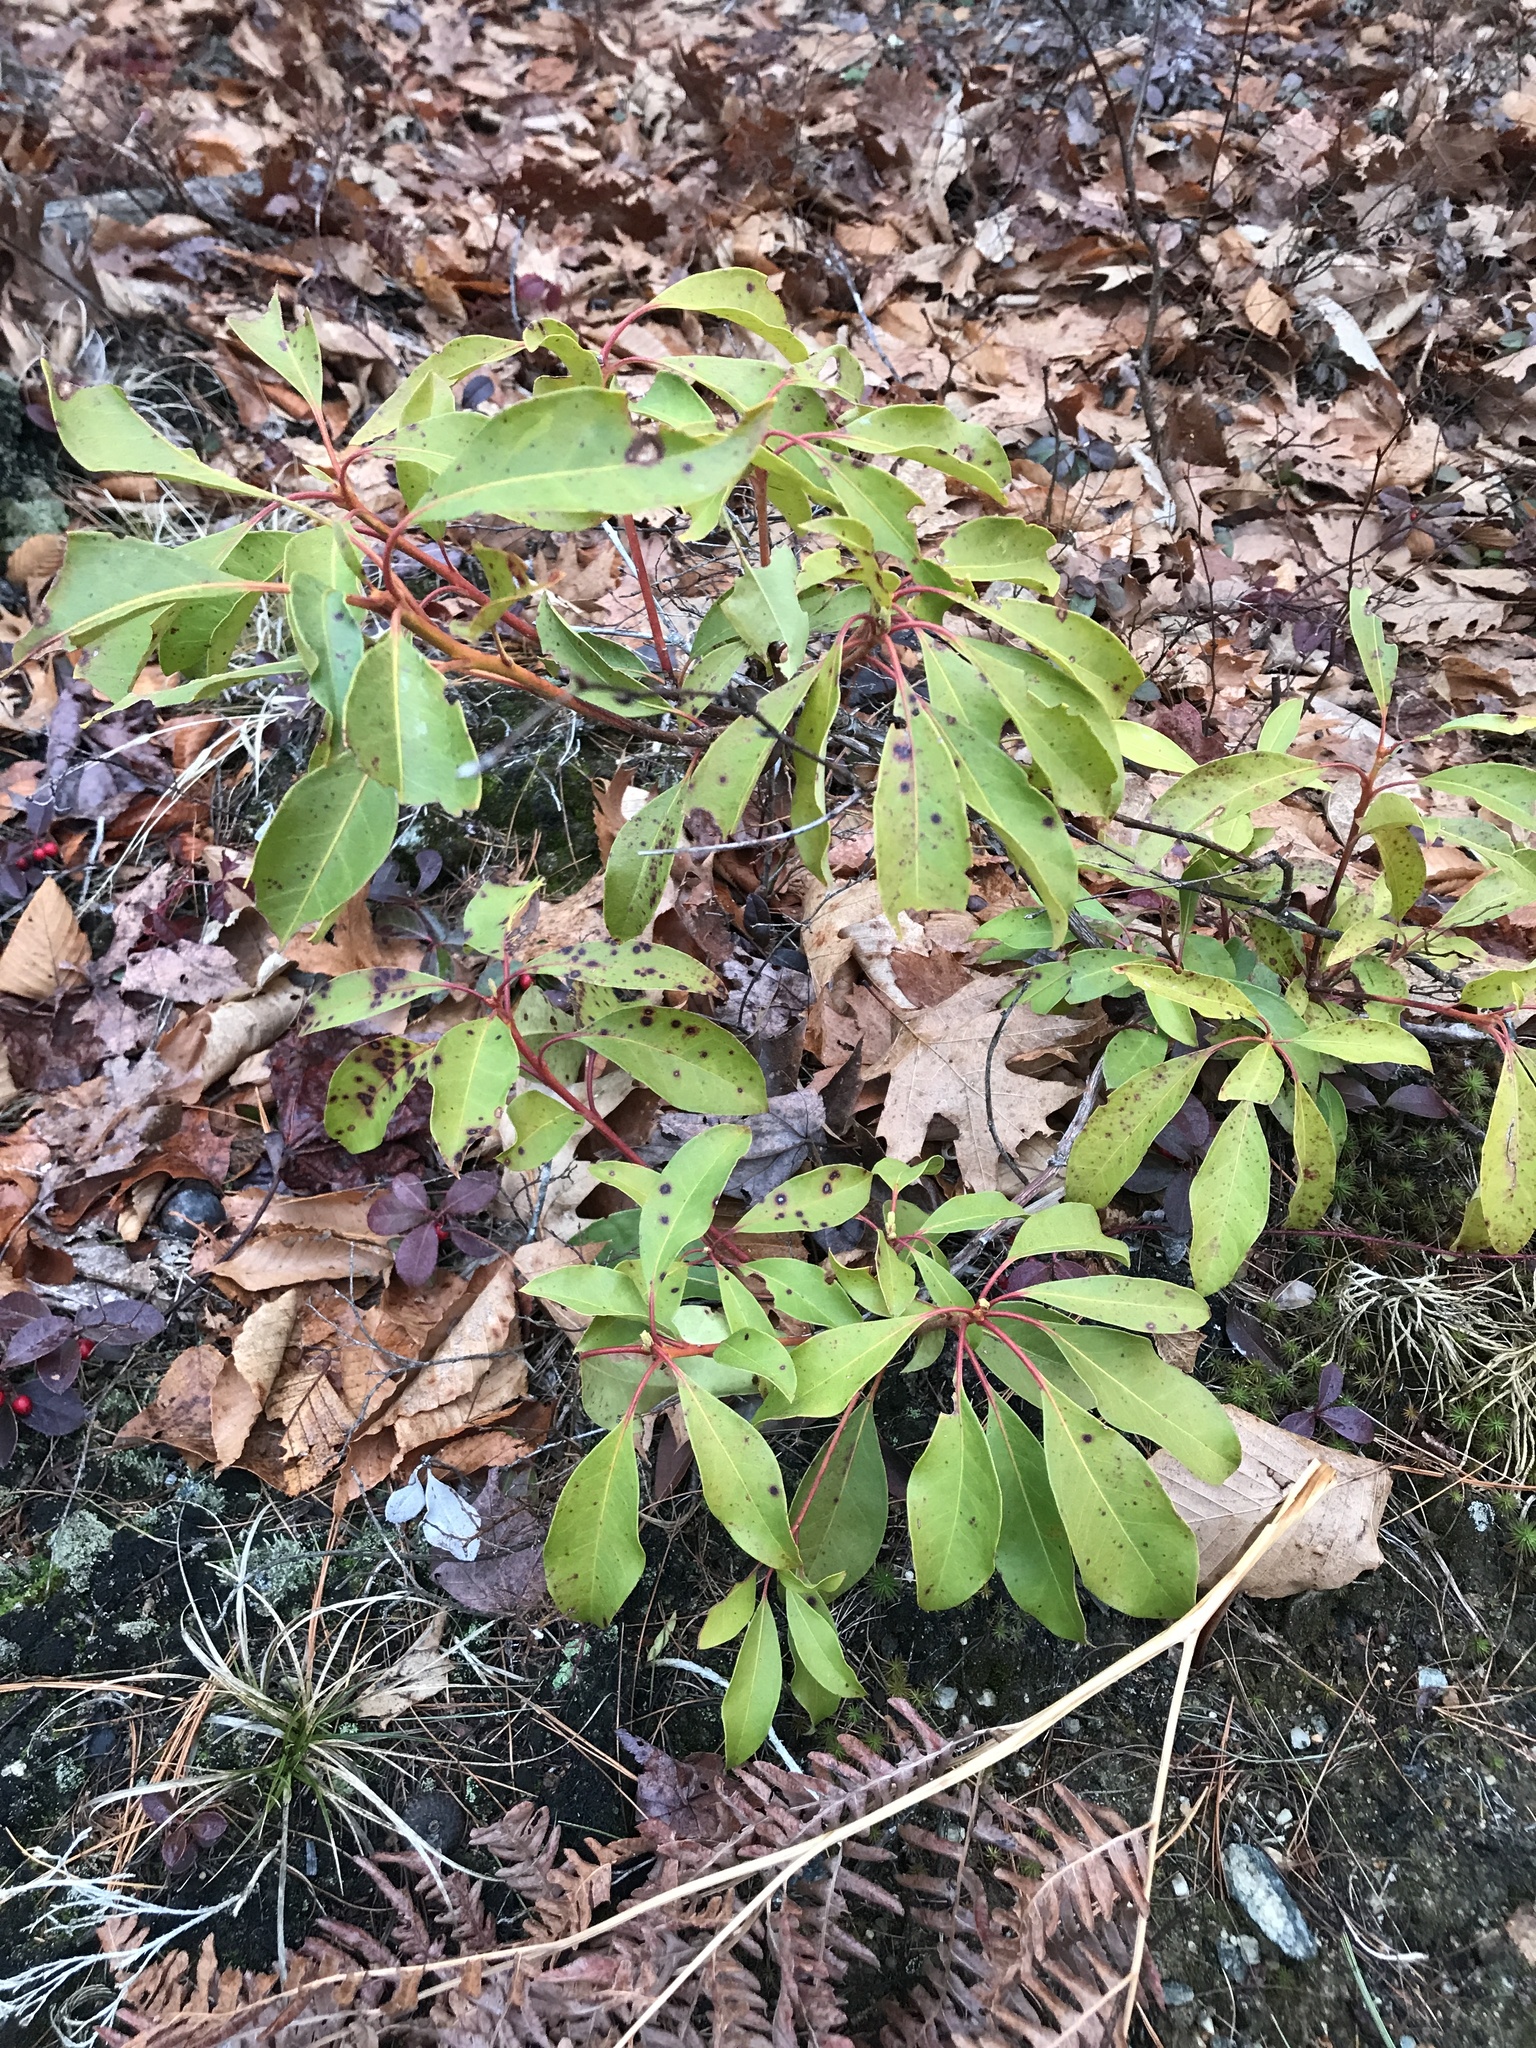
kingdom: Plantae
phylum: Tracheophyta
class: Magnoliopsida
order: Ericales
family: Ericaceae
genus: Kalmia
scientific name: Kalmia latifolia
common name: Mountain-laurel
